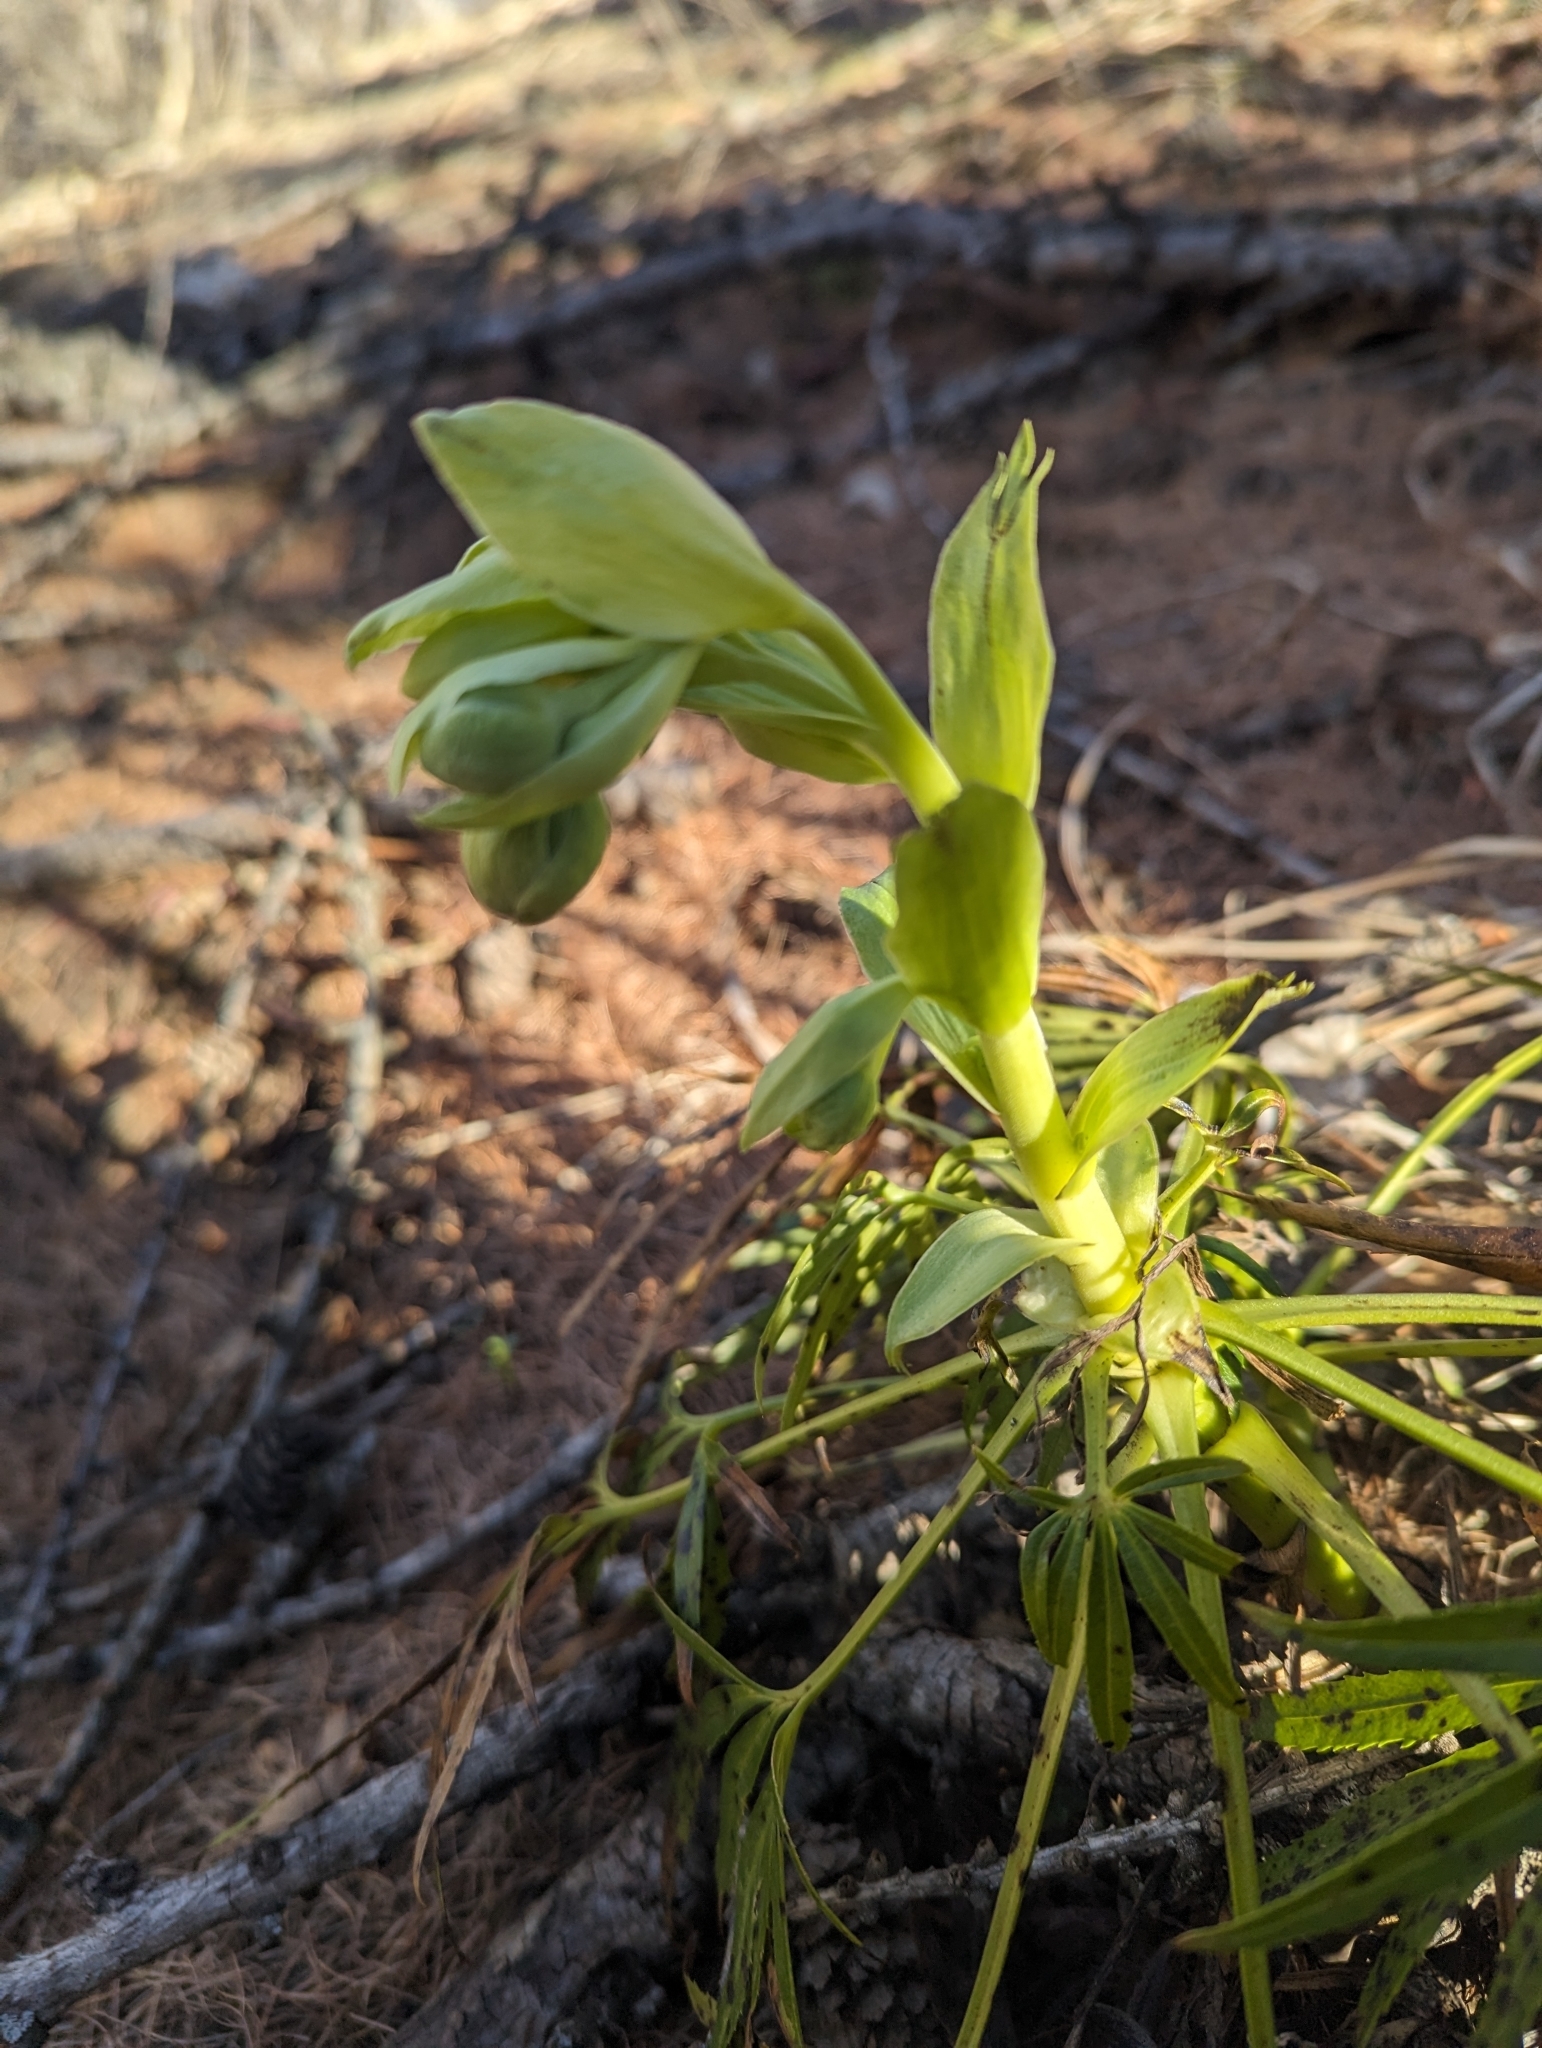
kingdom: Plantae
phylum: Tracheophyta
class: Magnoliopsida
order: Ranunculales
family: Ranunculaceae
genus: Helleborus
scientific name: Helleborus foetidus
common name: Stinking hellebore
